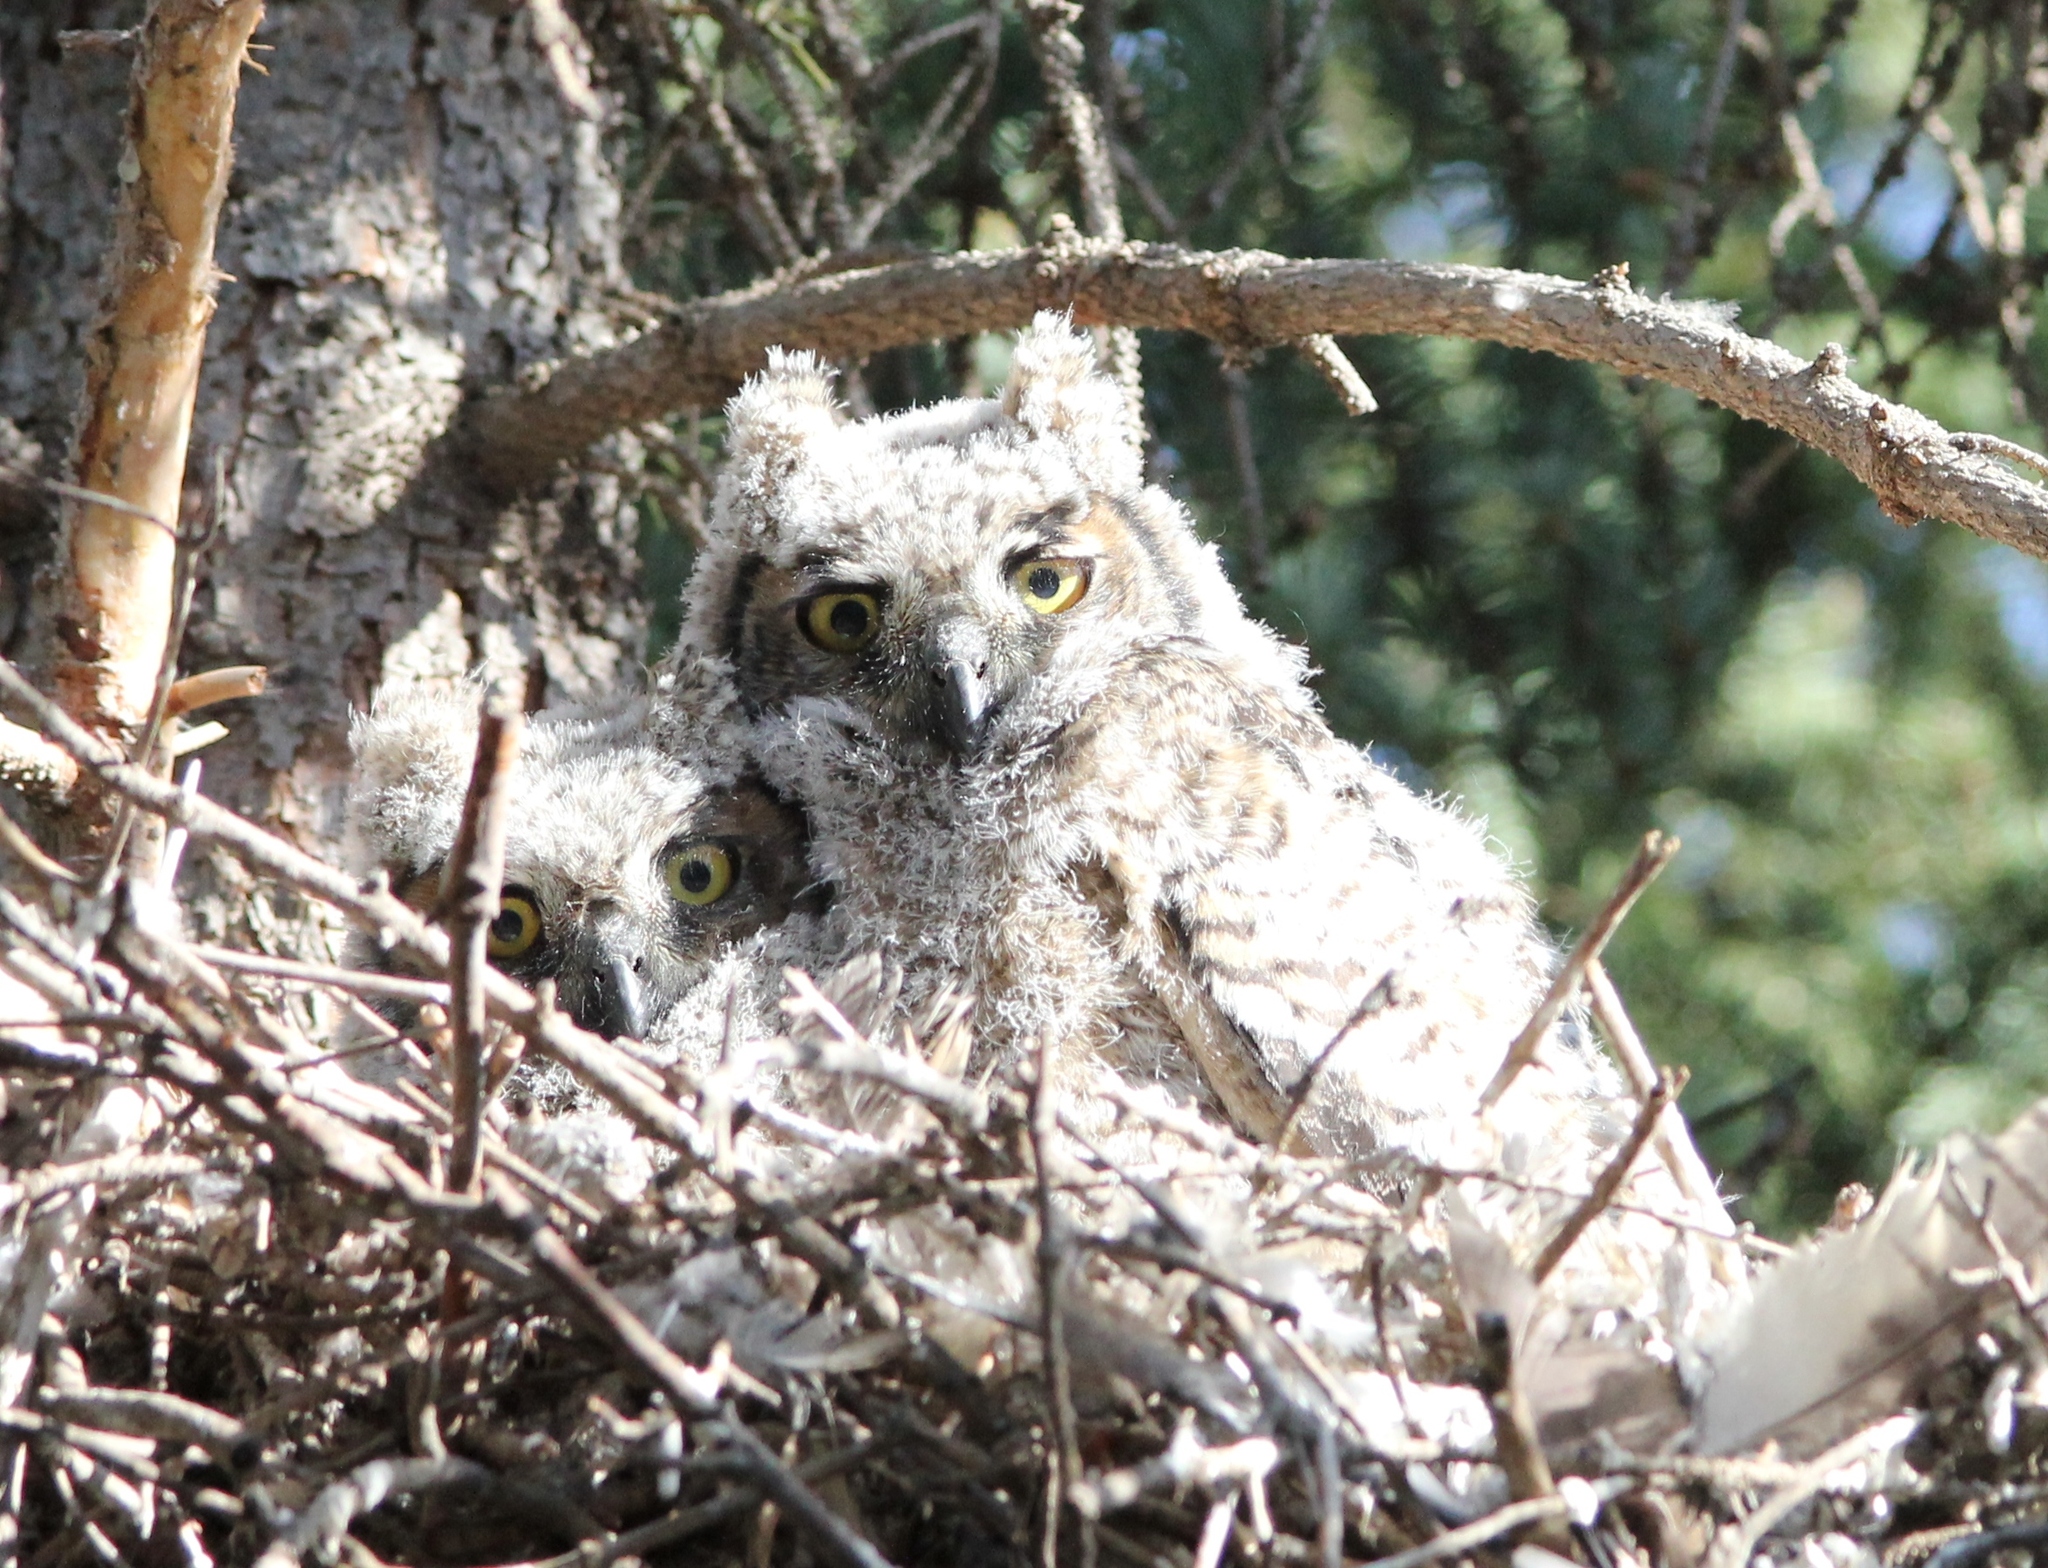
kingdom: Animalia
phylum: Chordata
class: Aves
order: Strigiformes
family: Strigidae
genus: Bubo
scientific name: Bubo virginianus
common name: Great horned owl
